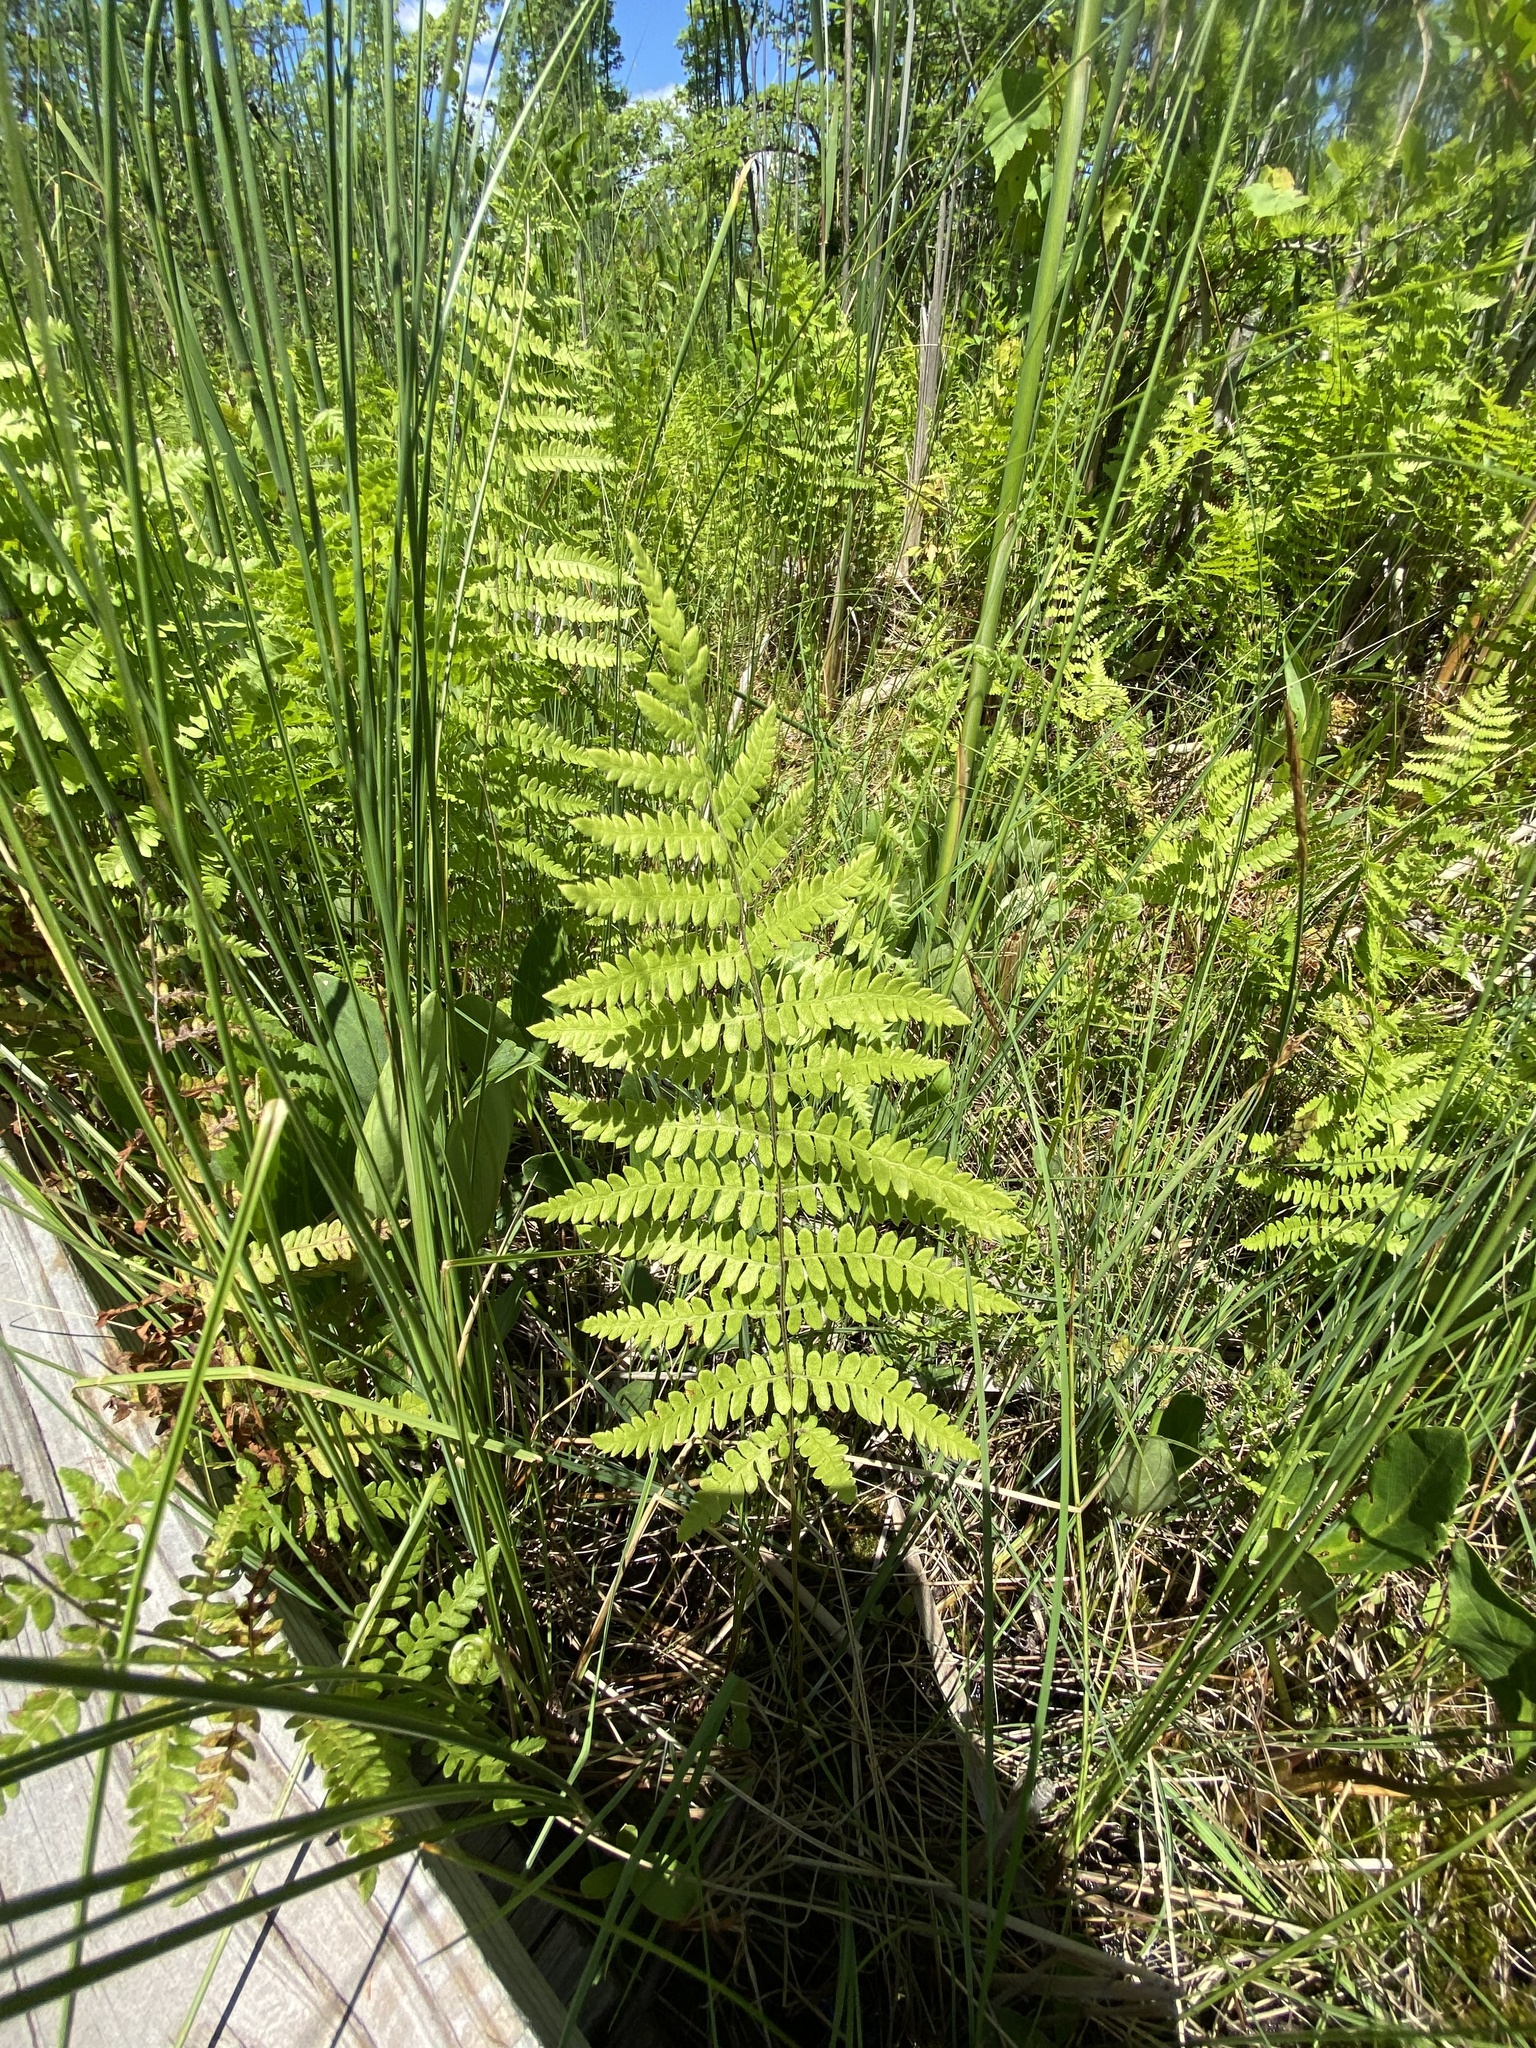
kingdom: Plantae
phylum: Tracheophyta
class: Polypodiopsida
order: Polypodiales
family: Thelypteridaceae
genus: Thelypteris
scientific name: Thelypteris palustris
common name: Marsh fern
